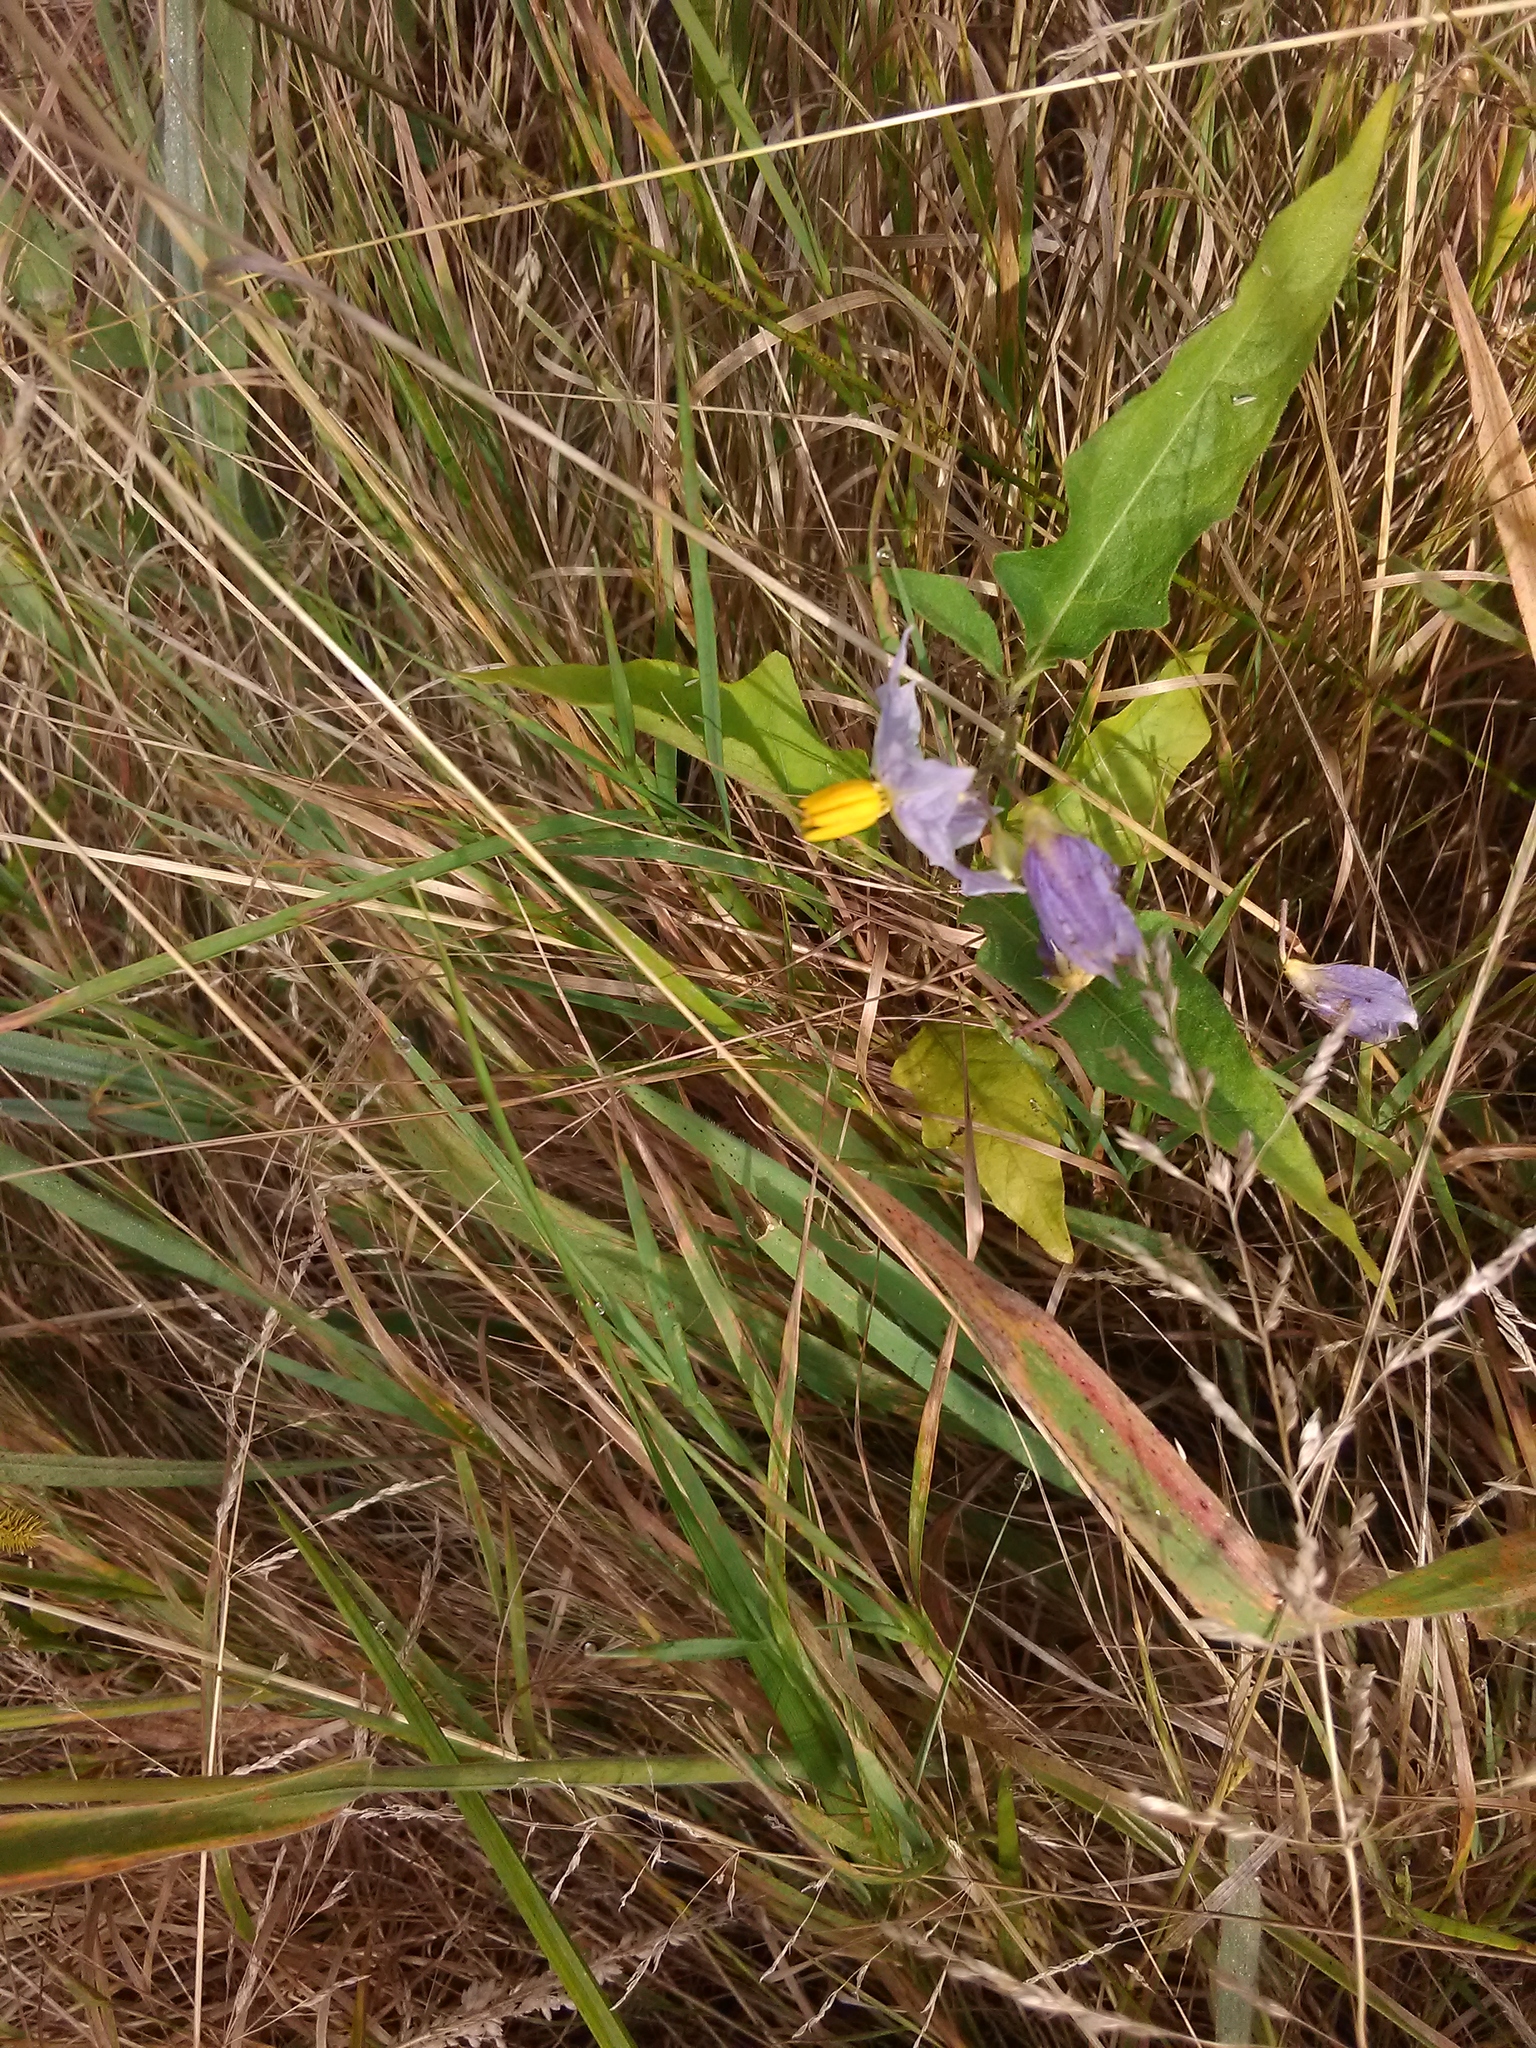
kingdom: Plantae
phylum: Tracheophyta
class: Magnoliopsida
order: Solanales
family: Solanaceae
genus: Solanum
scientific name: Solanum carolinense
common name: Horse-nettle
